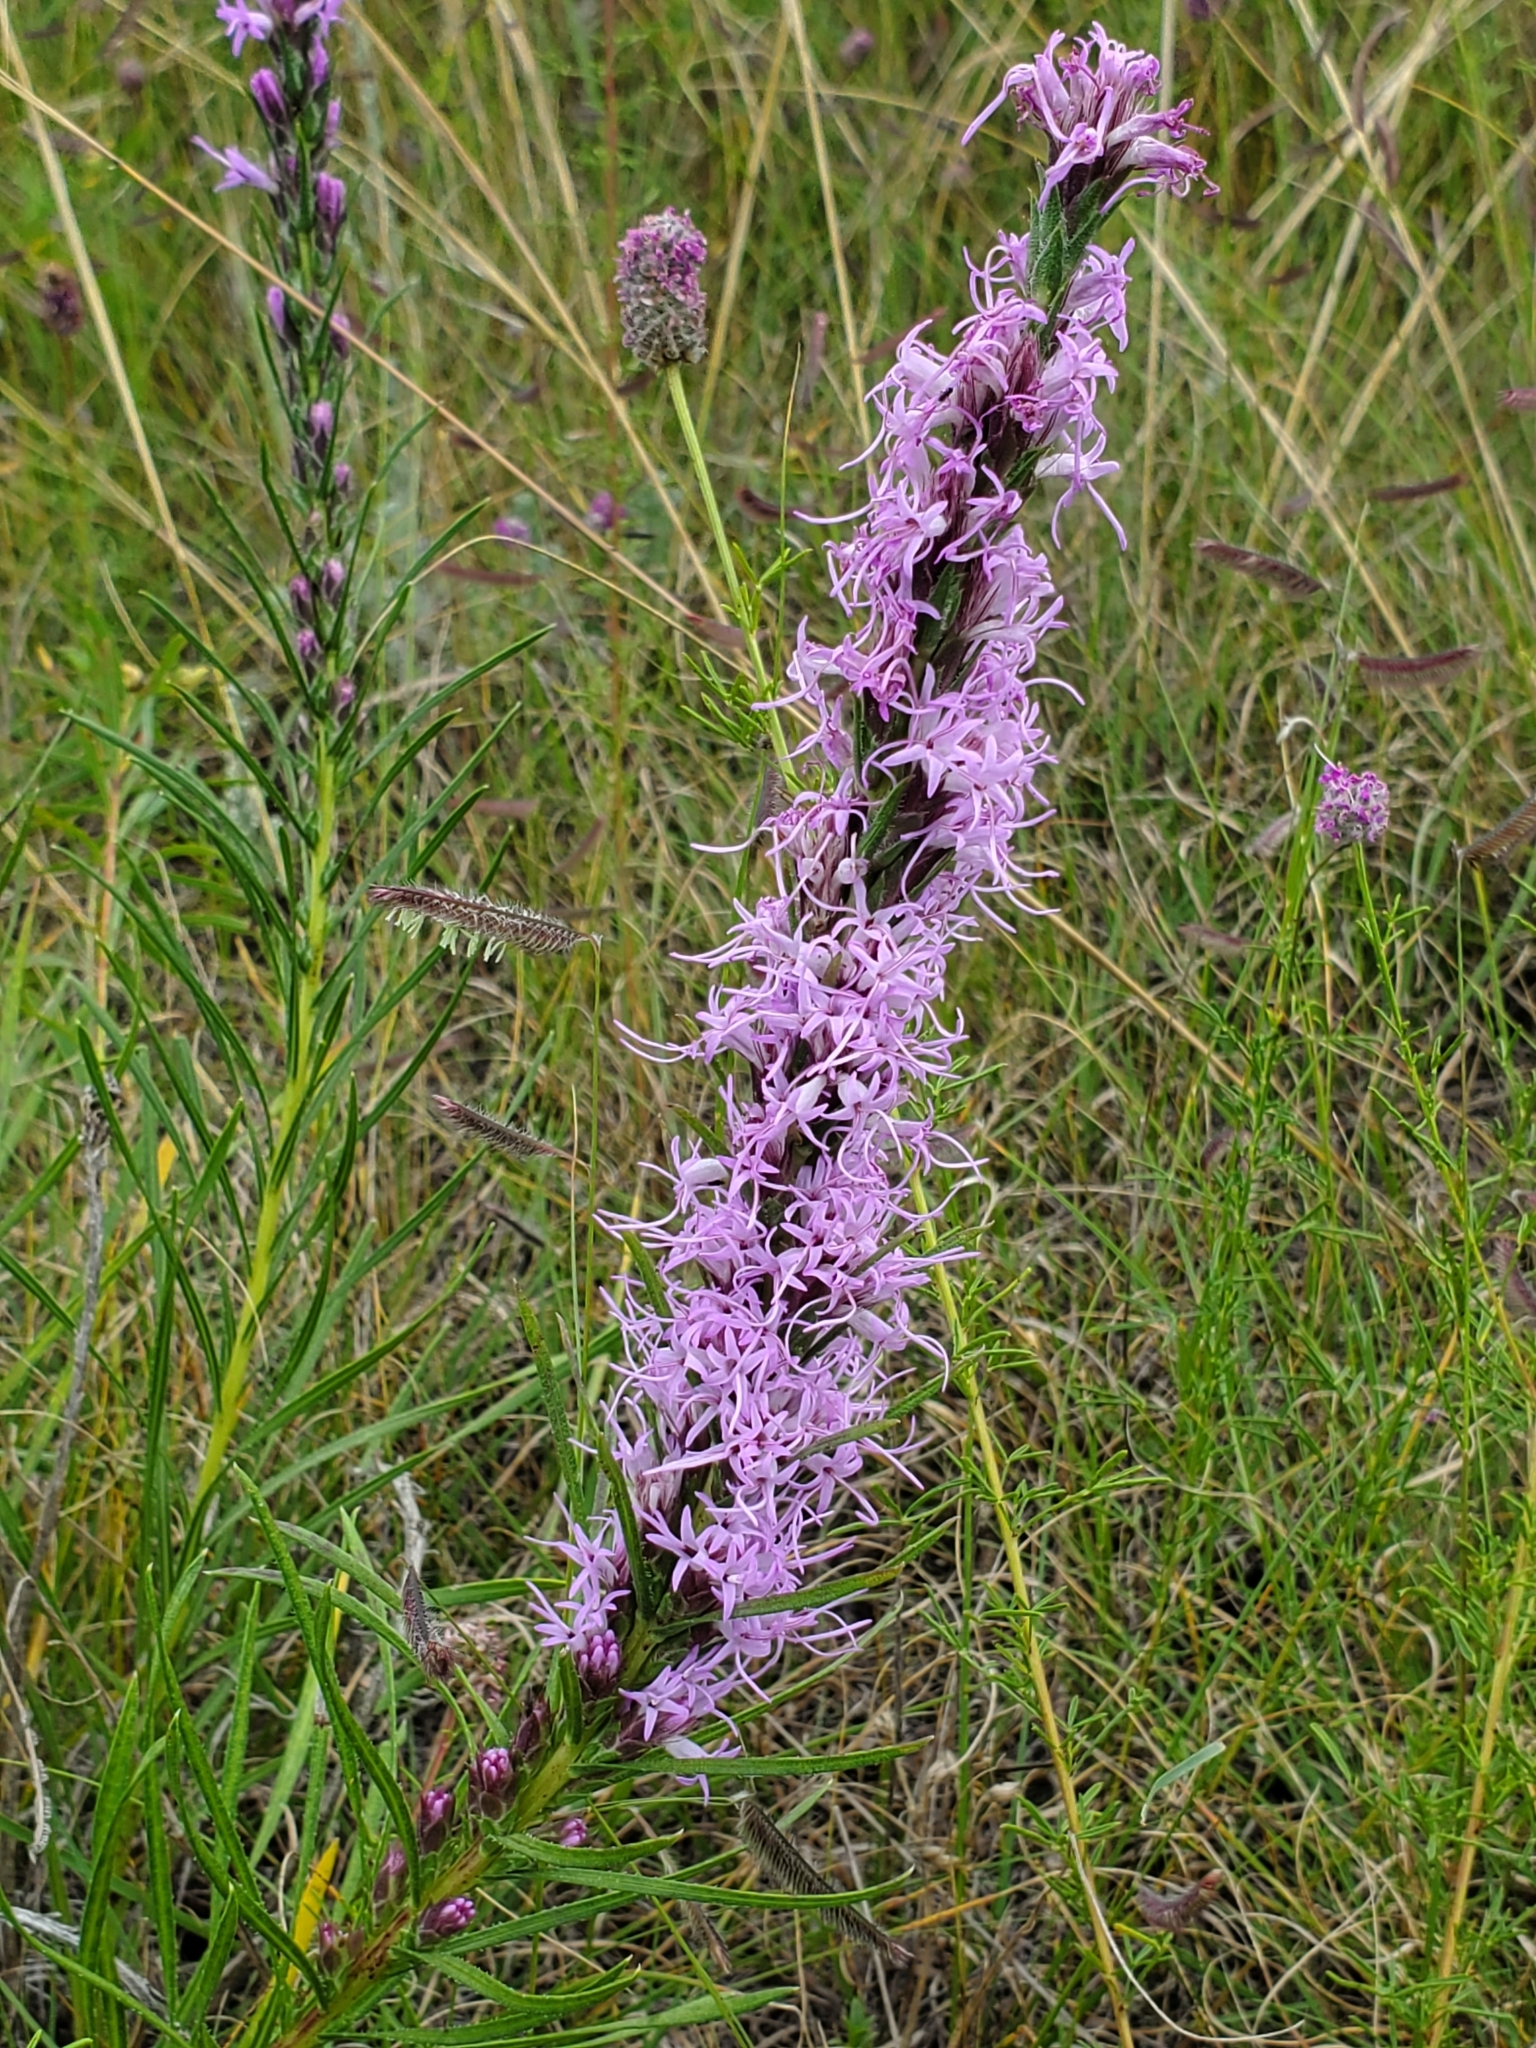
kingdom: Plantae
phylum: Tracheophyta
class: Magnoliopsida
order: Asterales
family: Asteraceae
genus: Liatris
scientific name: Liatris punctata
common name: Dotted gayfeather
